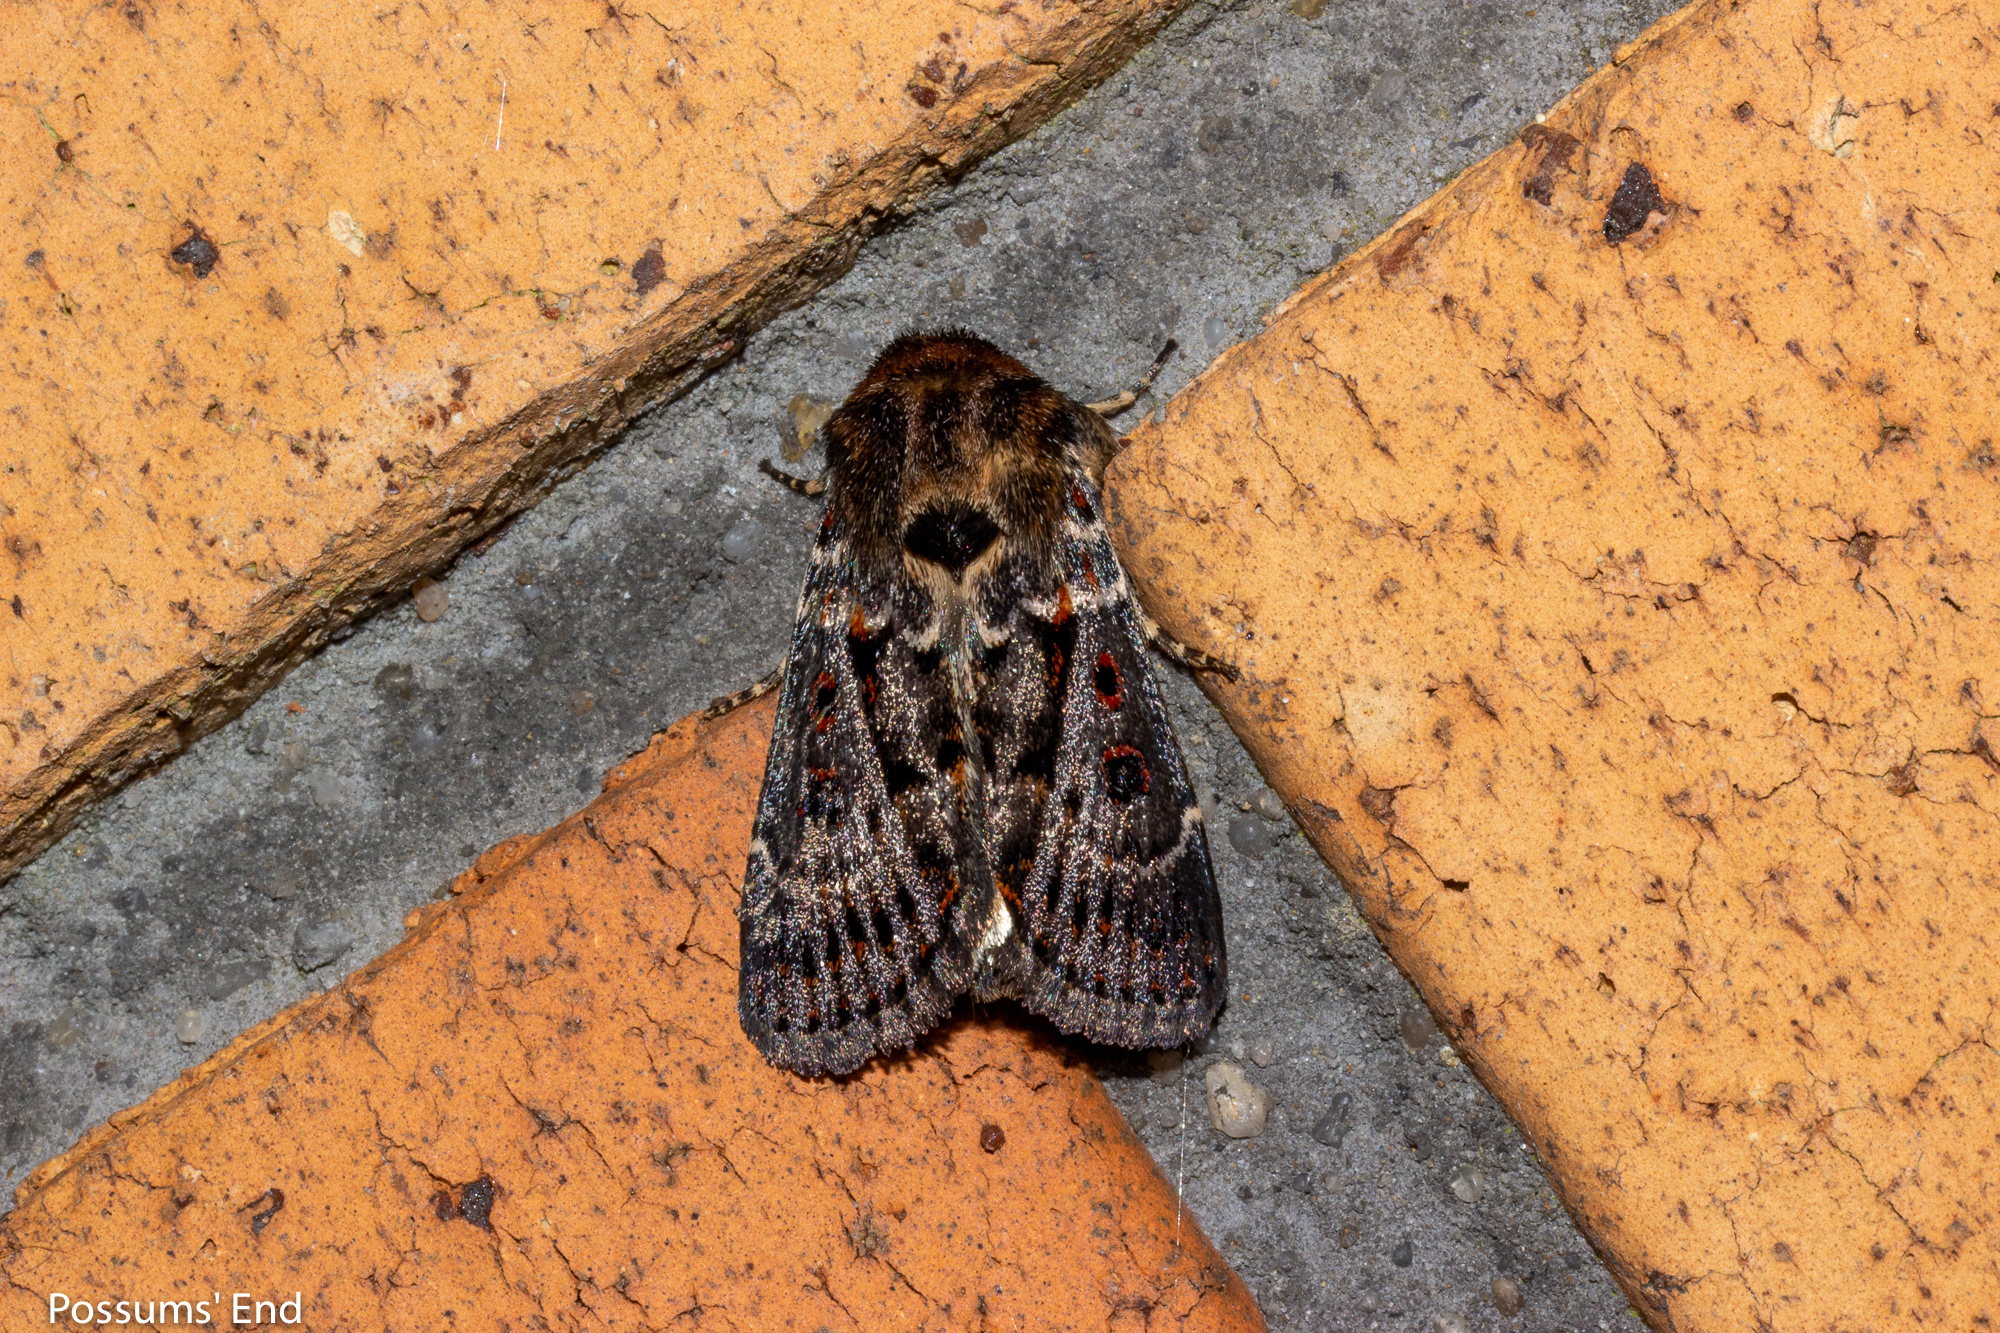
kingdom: Animalia
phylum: Arthropoda
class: Insecta
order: Lepidoptera
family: Noctuidae
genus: Proteuxoa
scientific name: Proteuxoa sanguinipuncta
